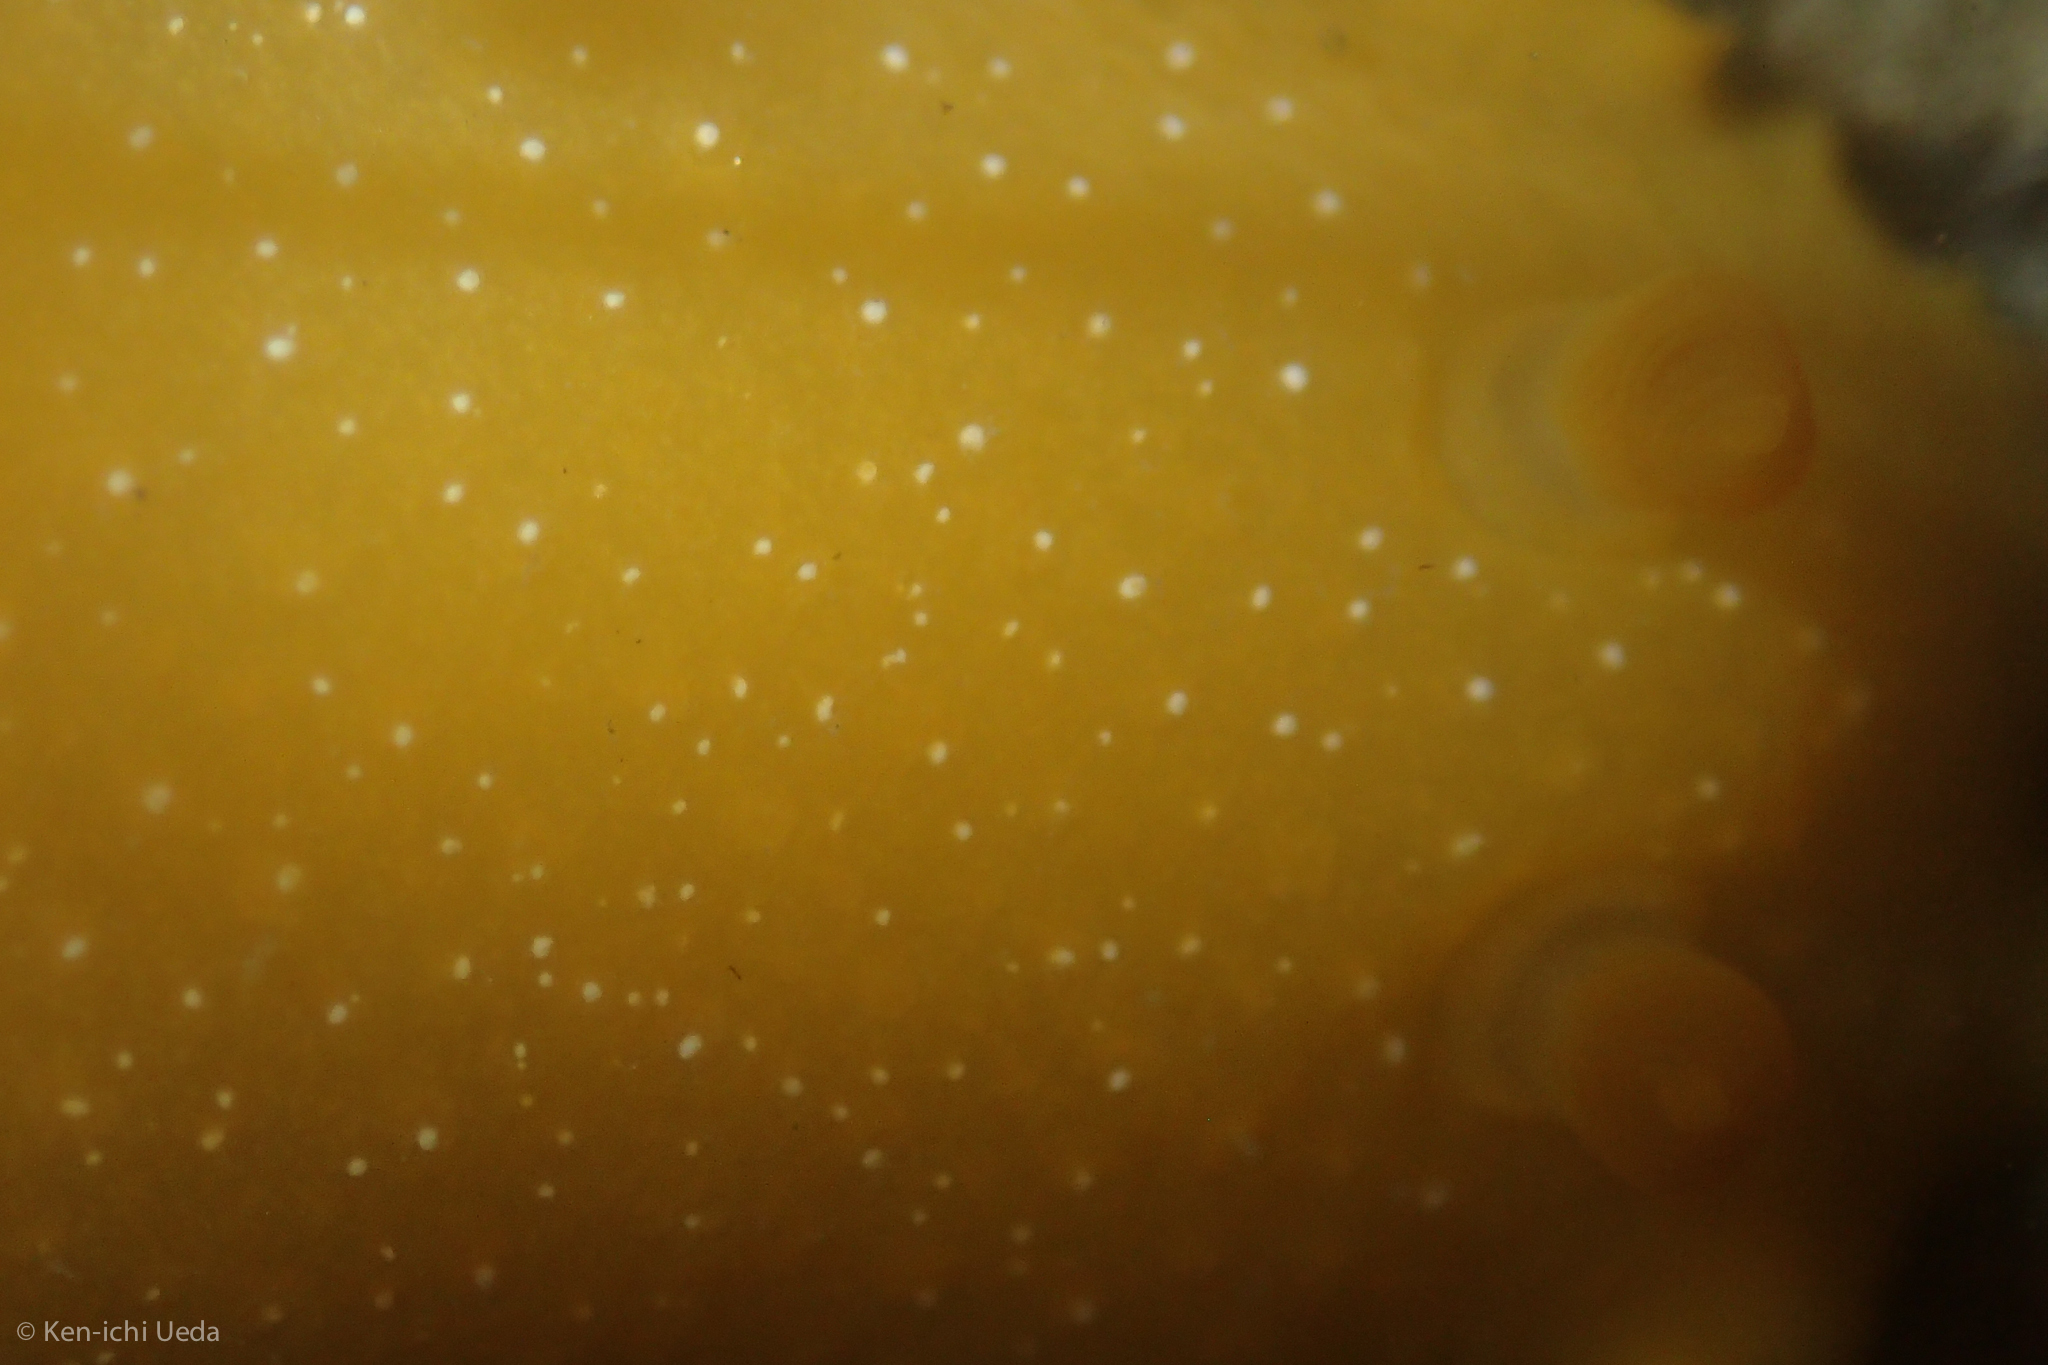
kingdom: Animalia
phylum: Mollusca
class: Gastropoda
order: Nudibranchia
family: Dendrodorididae
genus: Doriopsilla
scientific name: Doriopsilla fulva
